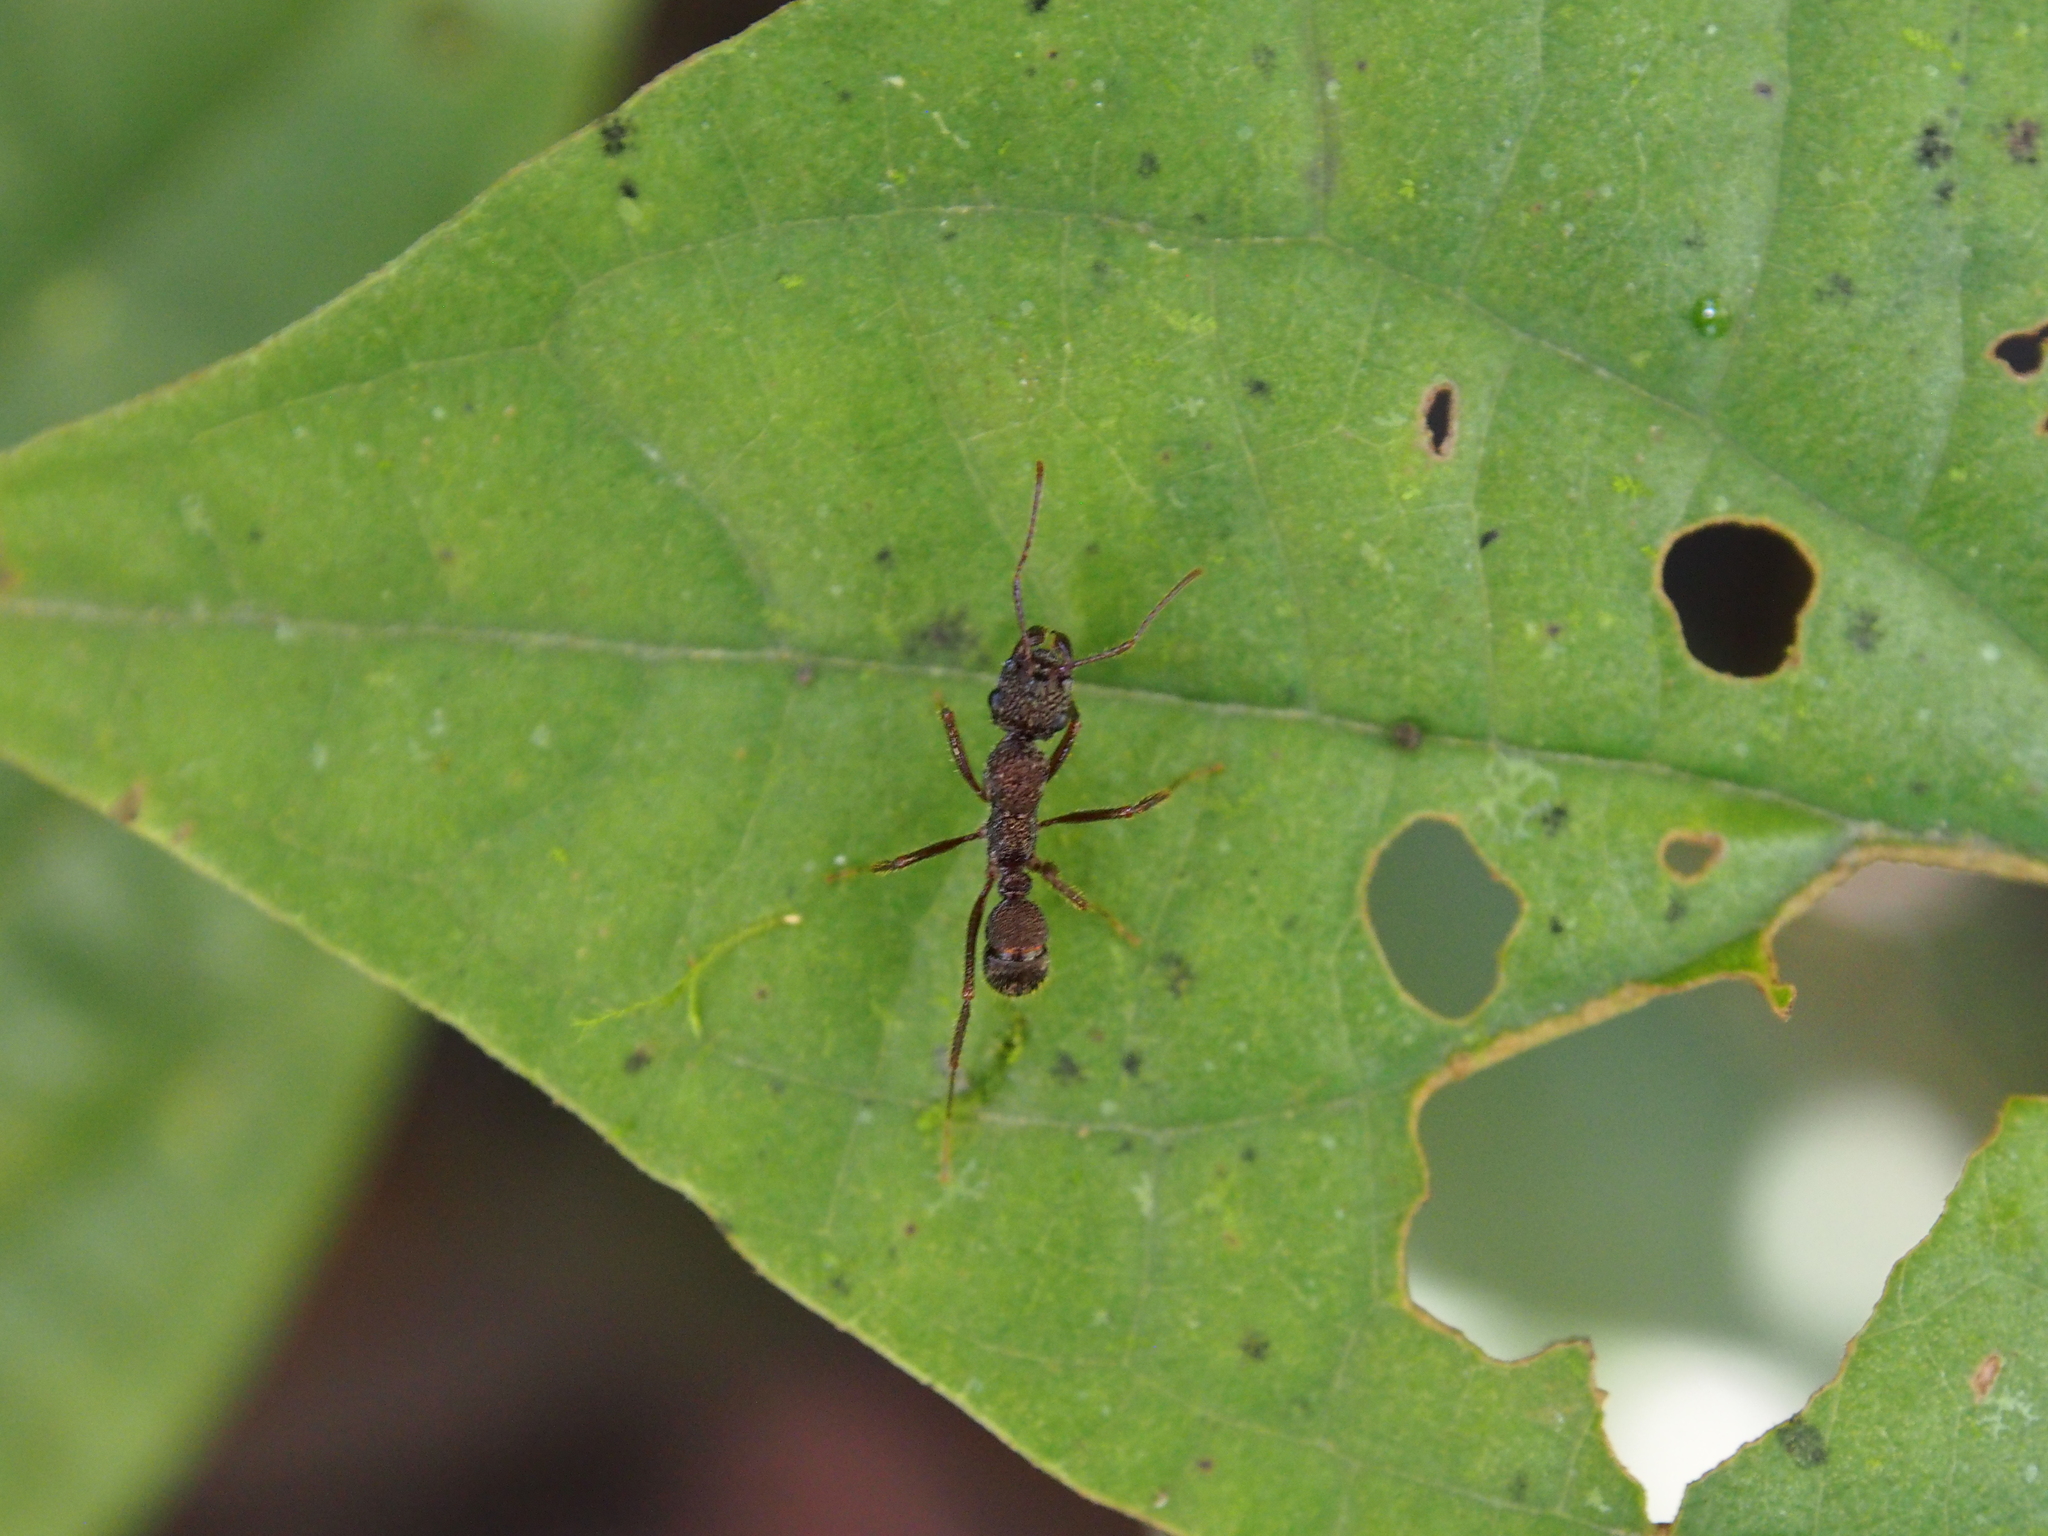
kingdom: Animalia
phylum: Arthropoda
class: Insecta
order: Hymenoptera
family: Formicidae
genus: Ectatomma
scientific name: Ectatomma ruidum
